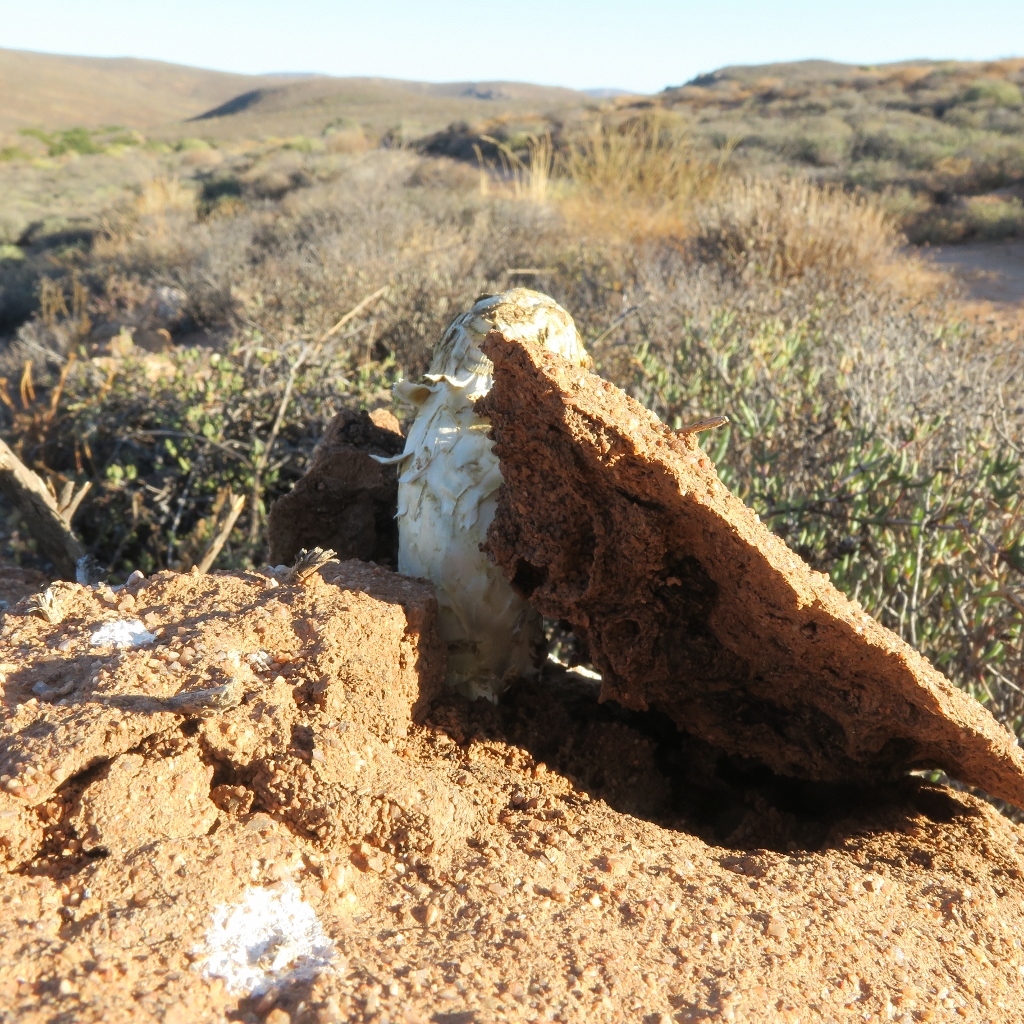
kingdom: Fungi
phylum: Basidiomycota
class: Agaricomycetes
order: Agaricales
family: Agaricaceae
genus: Podaxis
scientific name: Podaxis pistillaris
